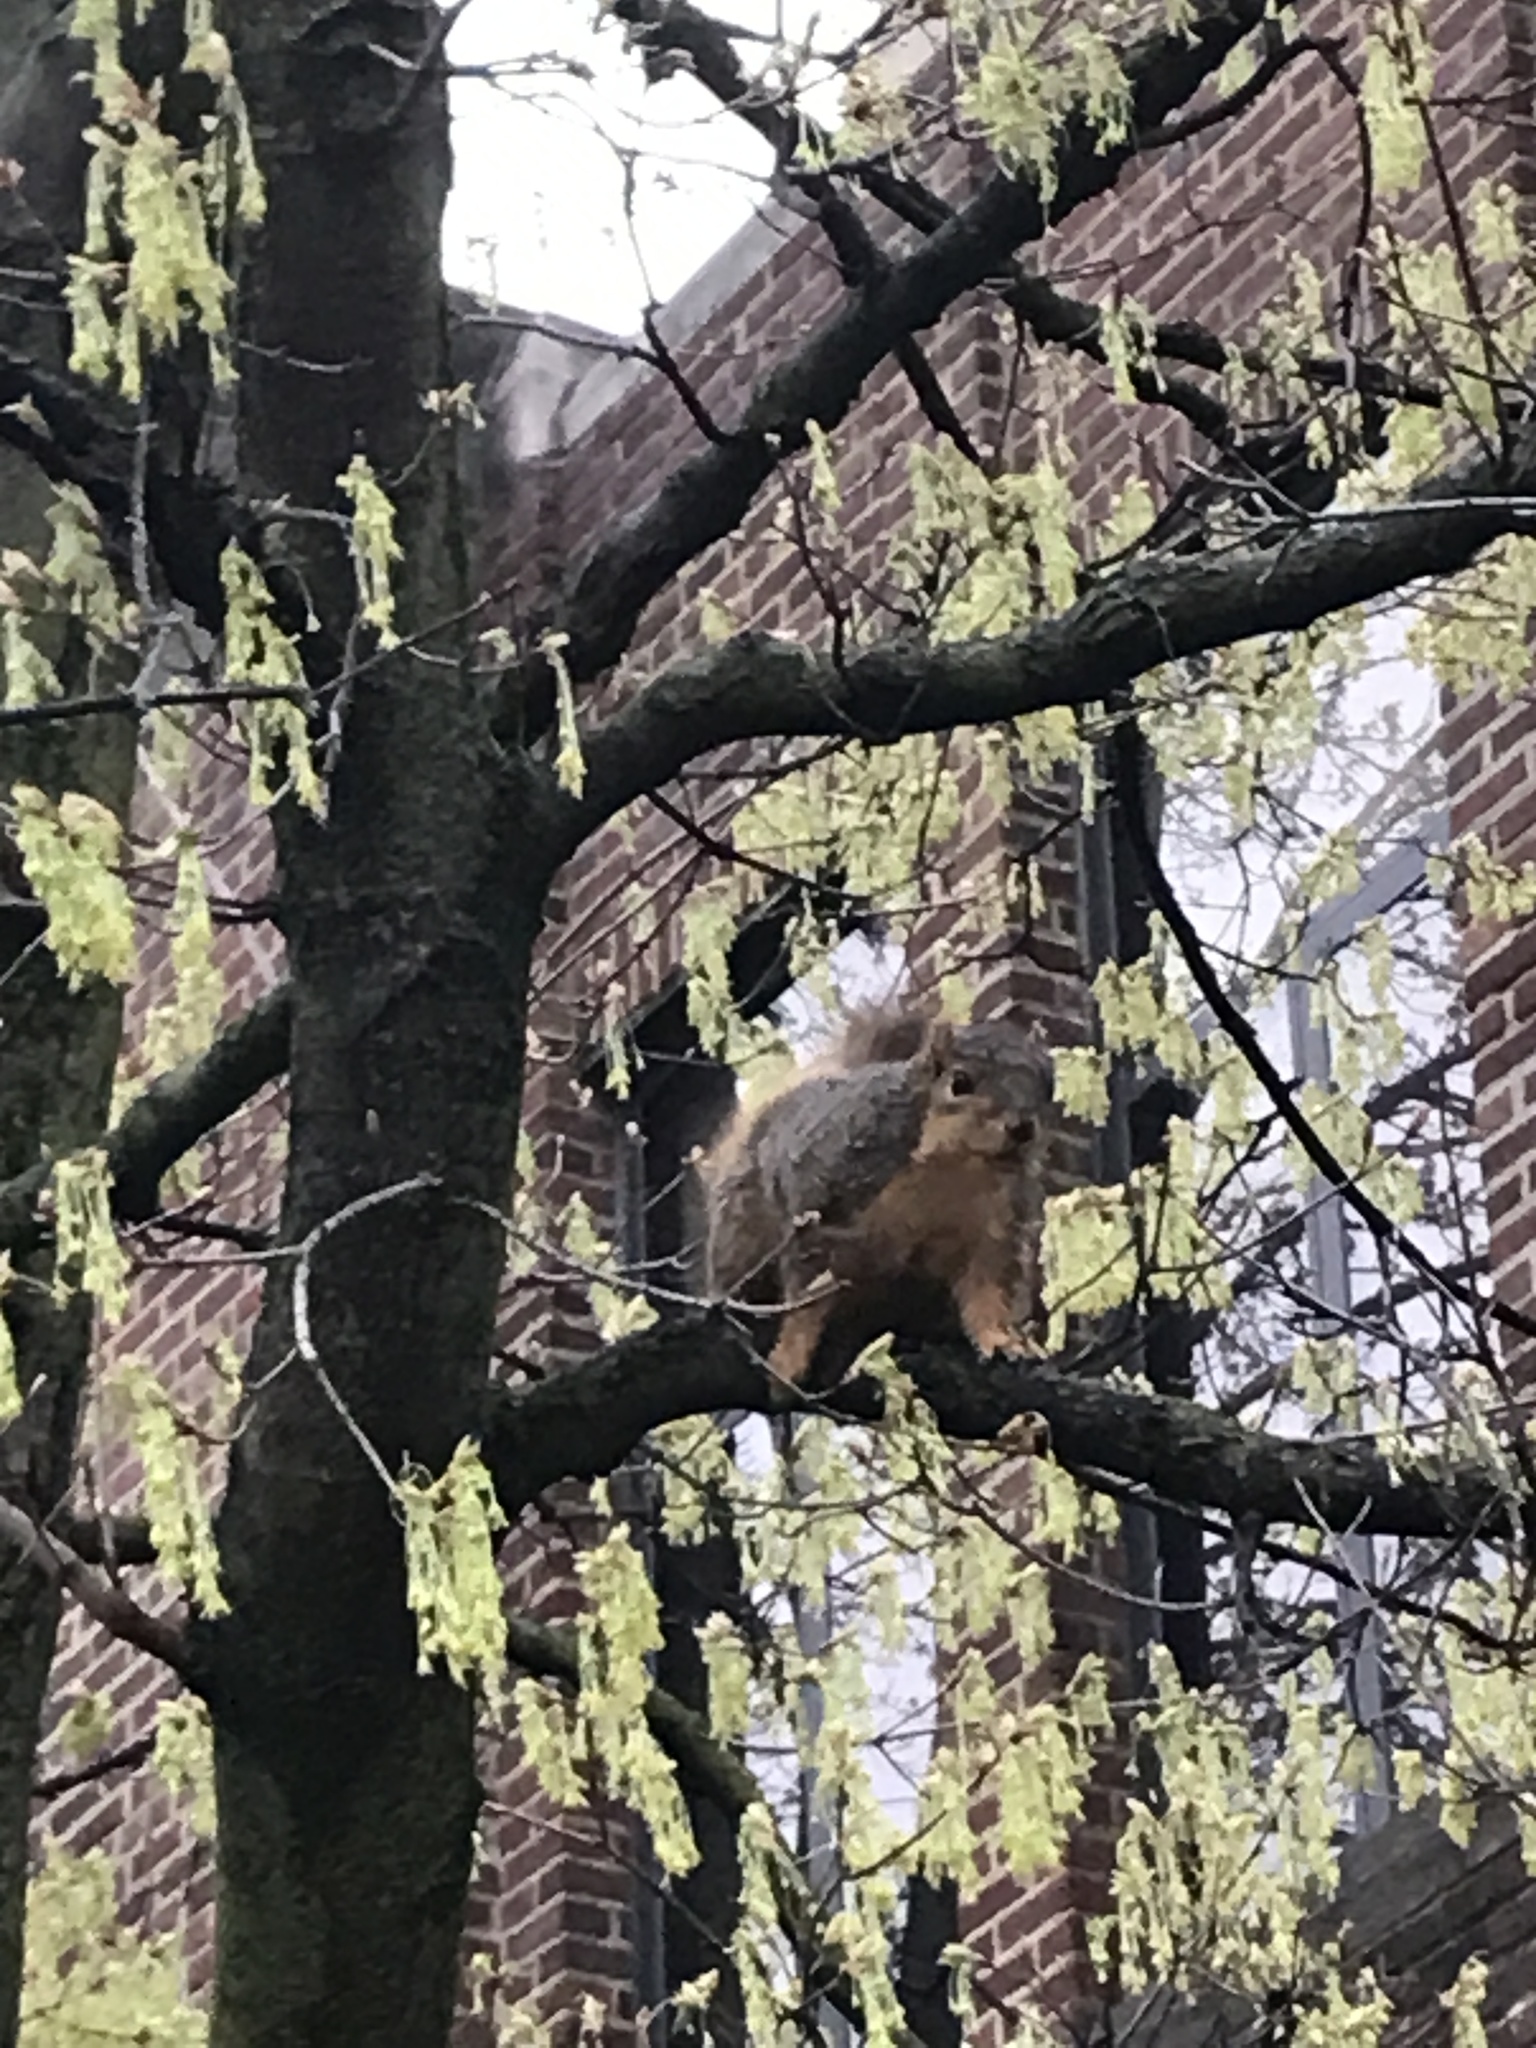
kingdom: Animalia
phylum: Chordata
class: Mammalia
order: Rodentia
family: Sciuridae
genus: Sciurus
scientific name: Sciurus niger
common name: Fox squirrel
